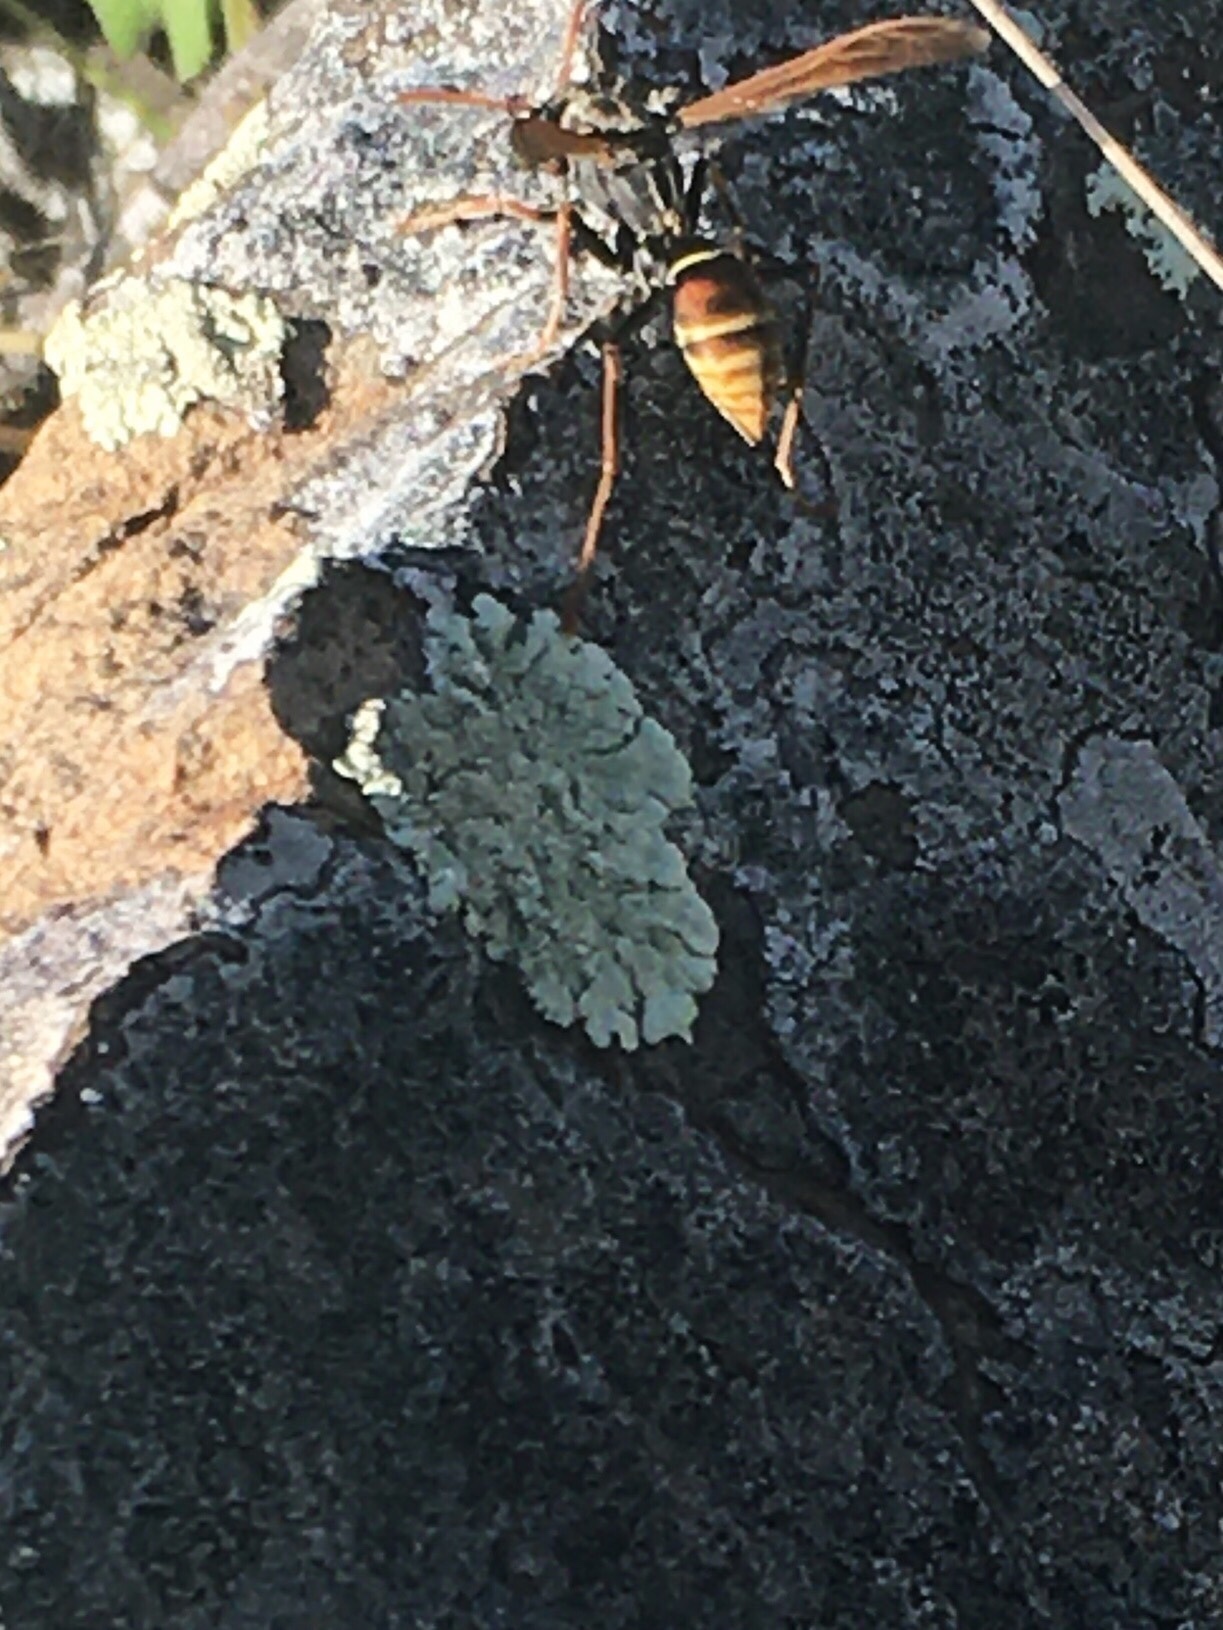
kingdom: Animalia
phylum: Arthropoda
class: Insecta
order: Hymenoptera
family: Eumenidae
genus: Polistes
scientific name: Polistes billardieri
